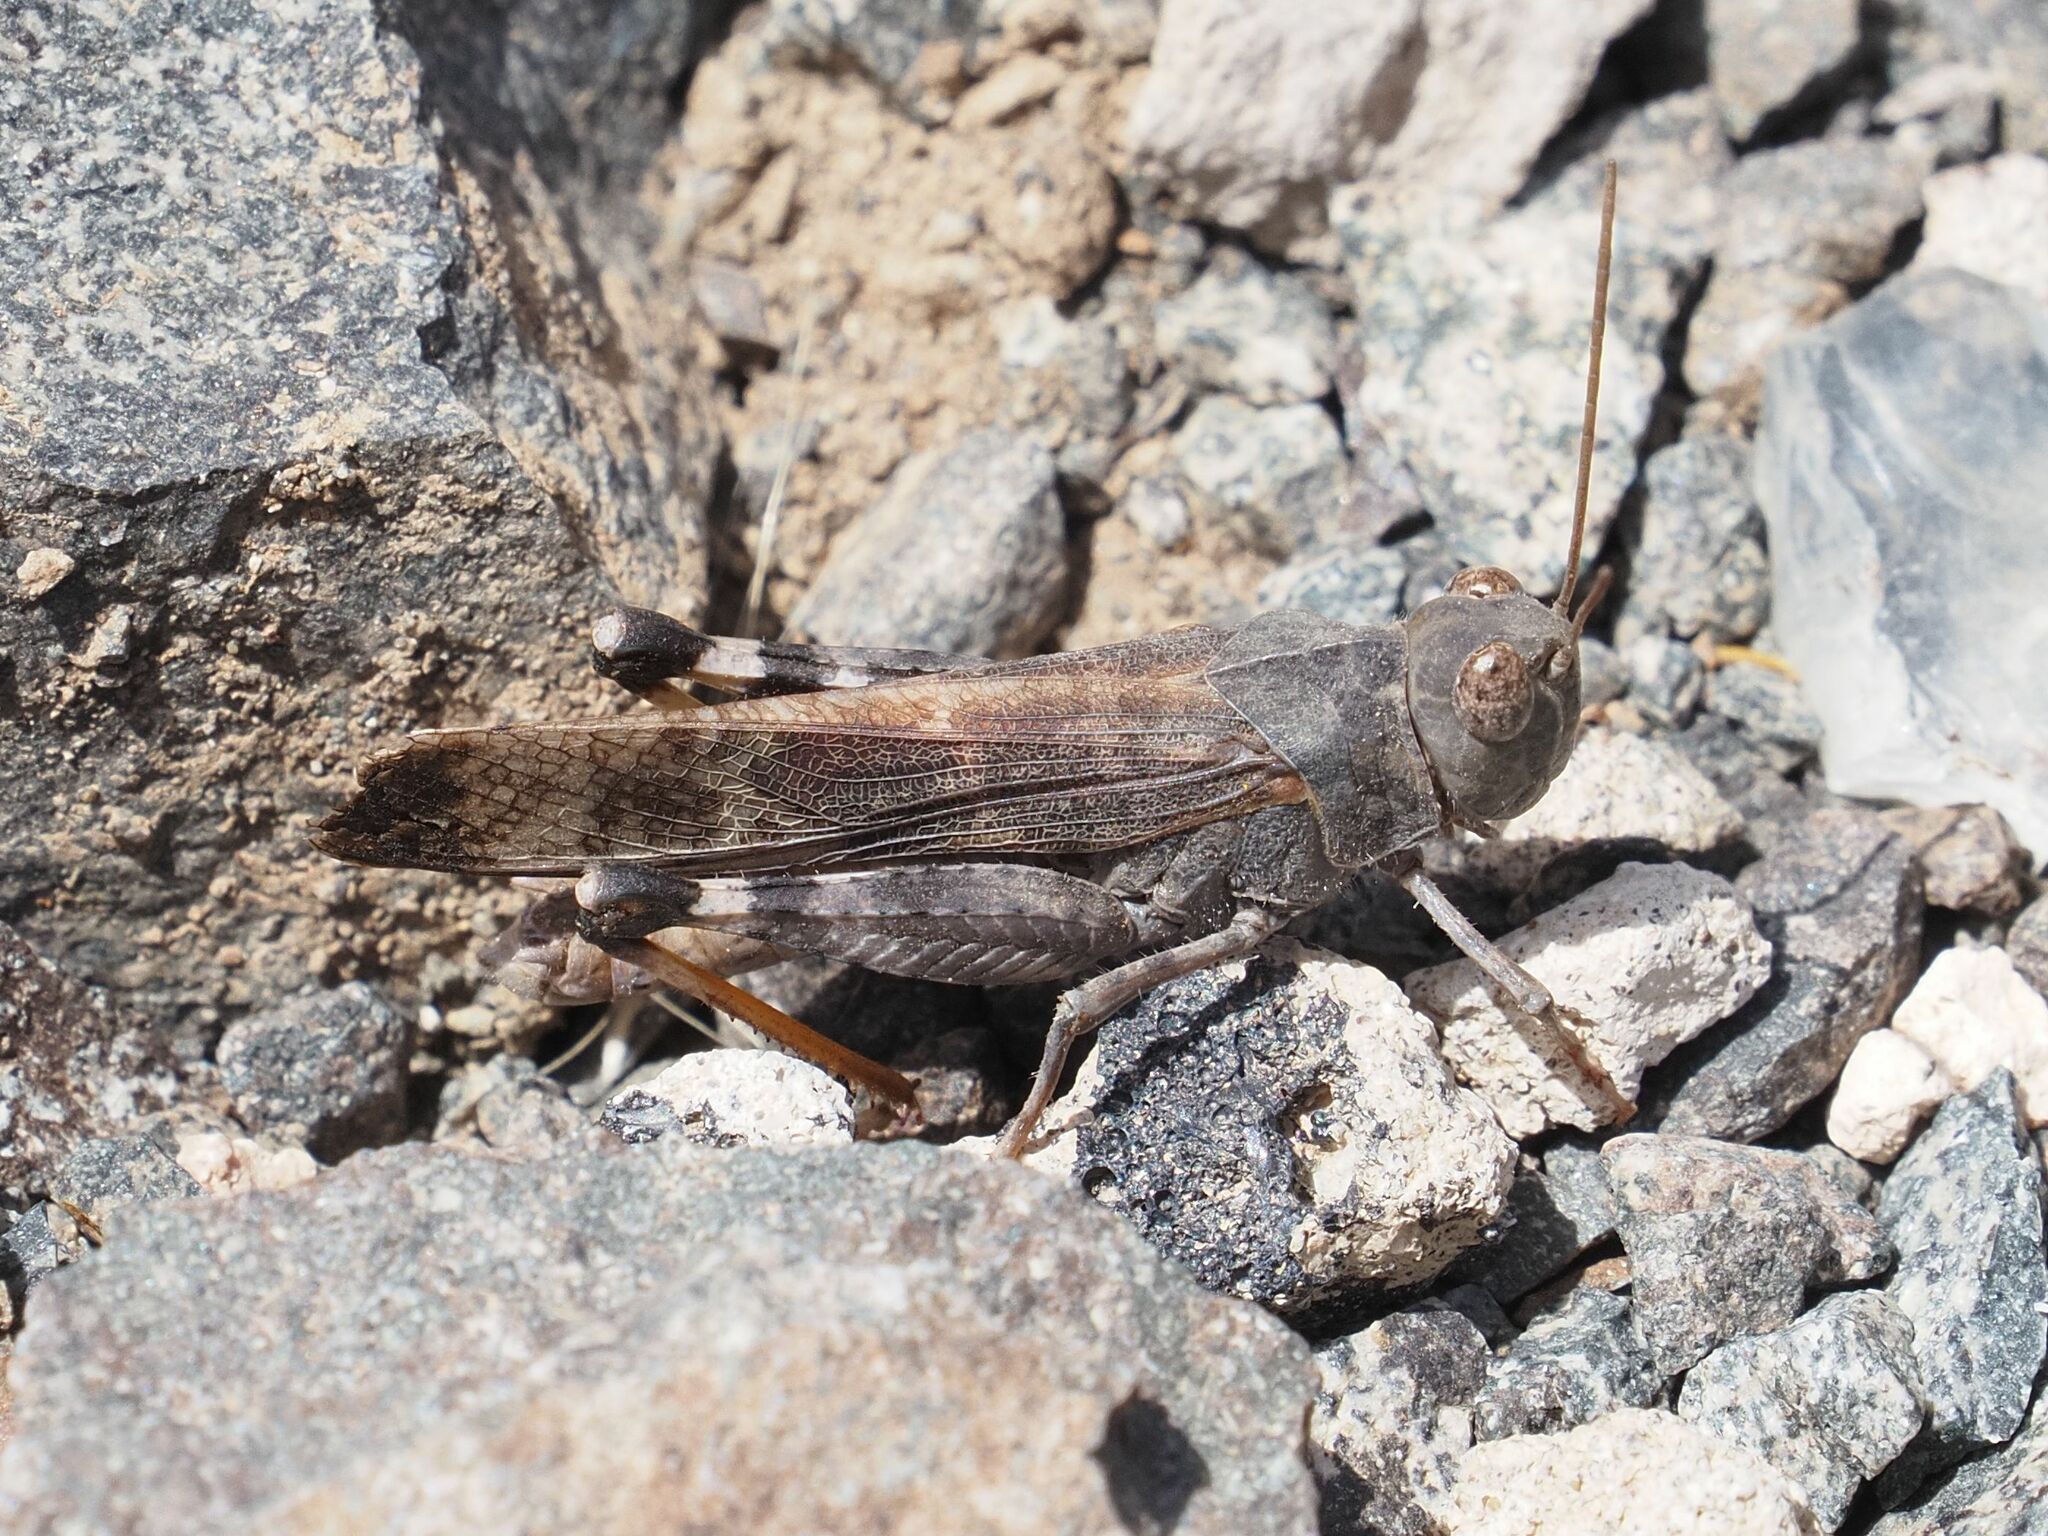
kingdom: Animalia
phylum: Arthropoda
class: Insecta
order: Orthoptera
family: Acrididae
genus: Scintharista
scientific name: Scintharista notabilis
